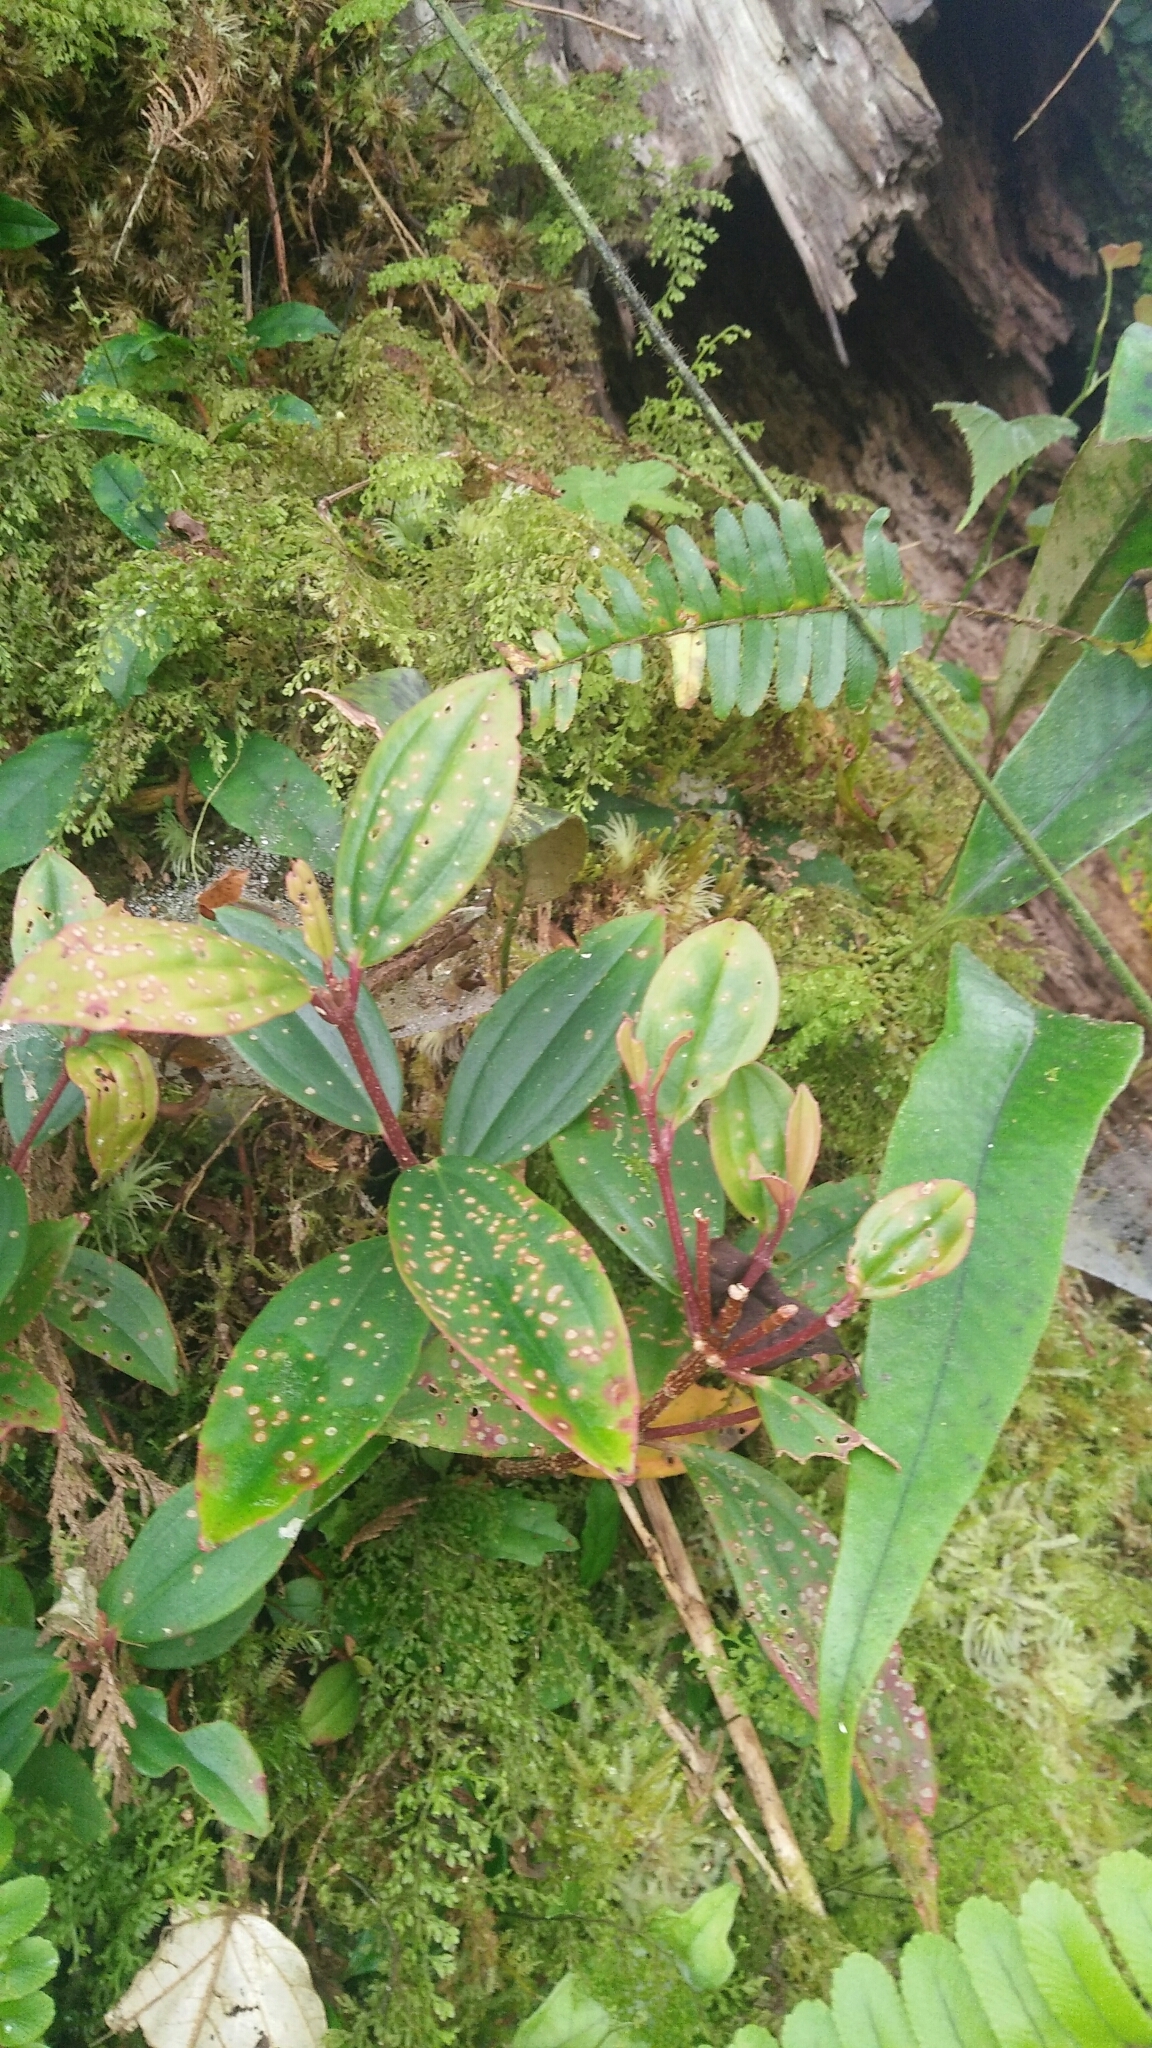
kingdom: Plantae
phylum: Tracheophyta
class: Magnoliopsida
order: Myrtales
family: Melastomataceae
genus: Medinilla
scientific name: Medinilla fengii
